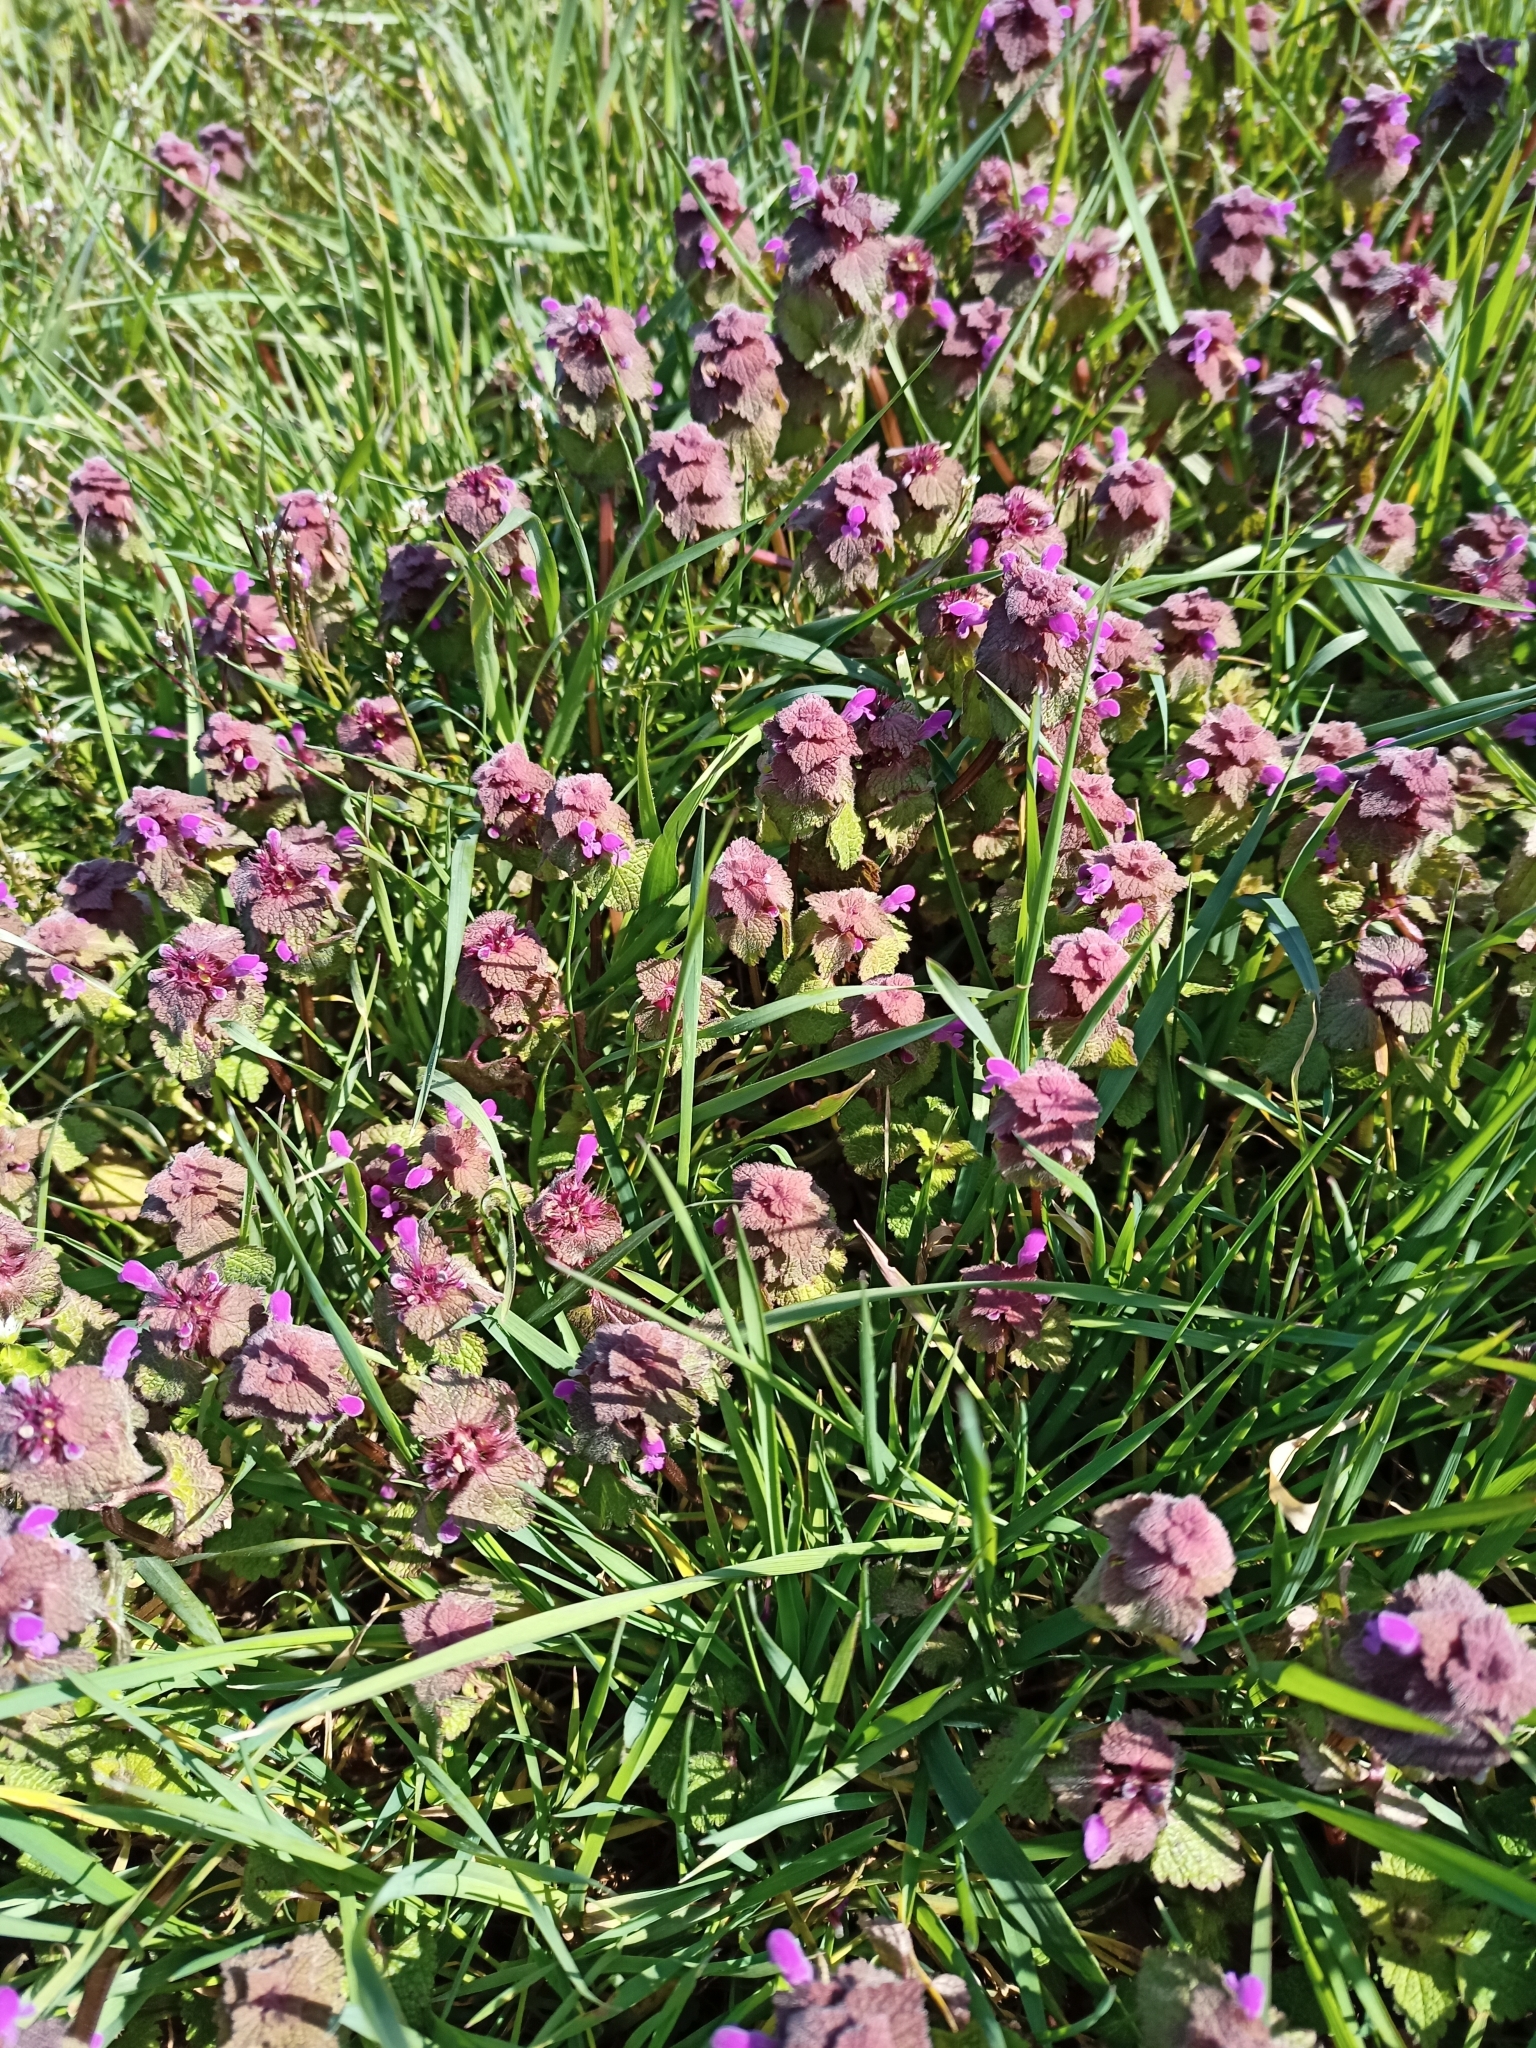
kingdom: Plantae
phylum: Tracheophyta
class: Magnoliopsida
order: Lamiales
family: Lamiaceae
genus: Lamium
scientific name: Lamium purpureum
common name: Red dead-nettle
